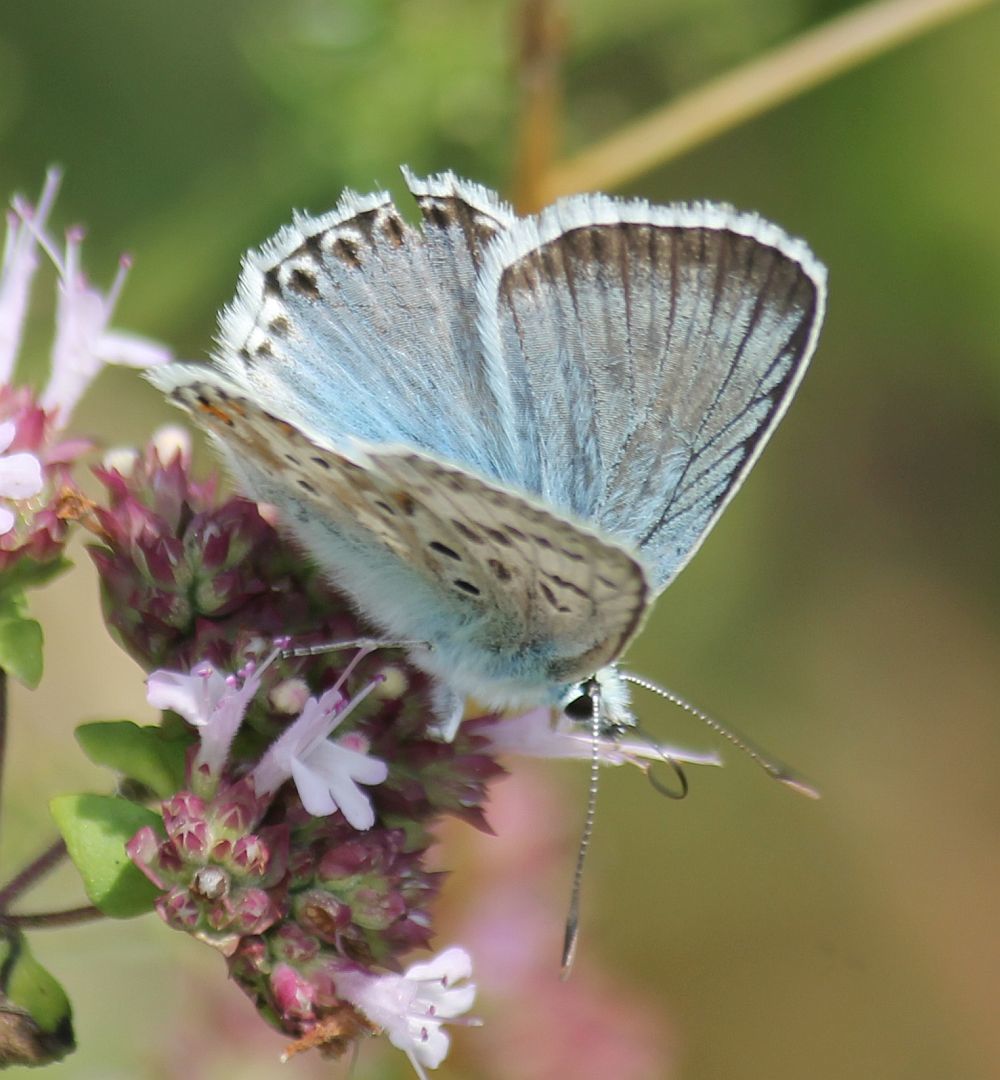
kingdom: Animalia
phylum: Arthropoda
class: Insecta
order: Lepidoptera
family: Lycaenidae
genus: Lysandra
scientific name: Lysandra coridon
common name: Chalkhill blue
